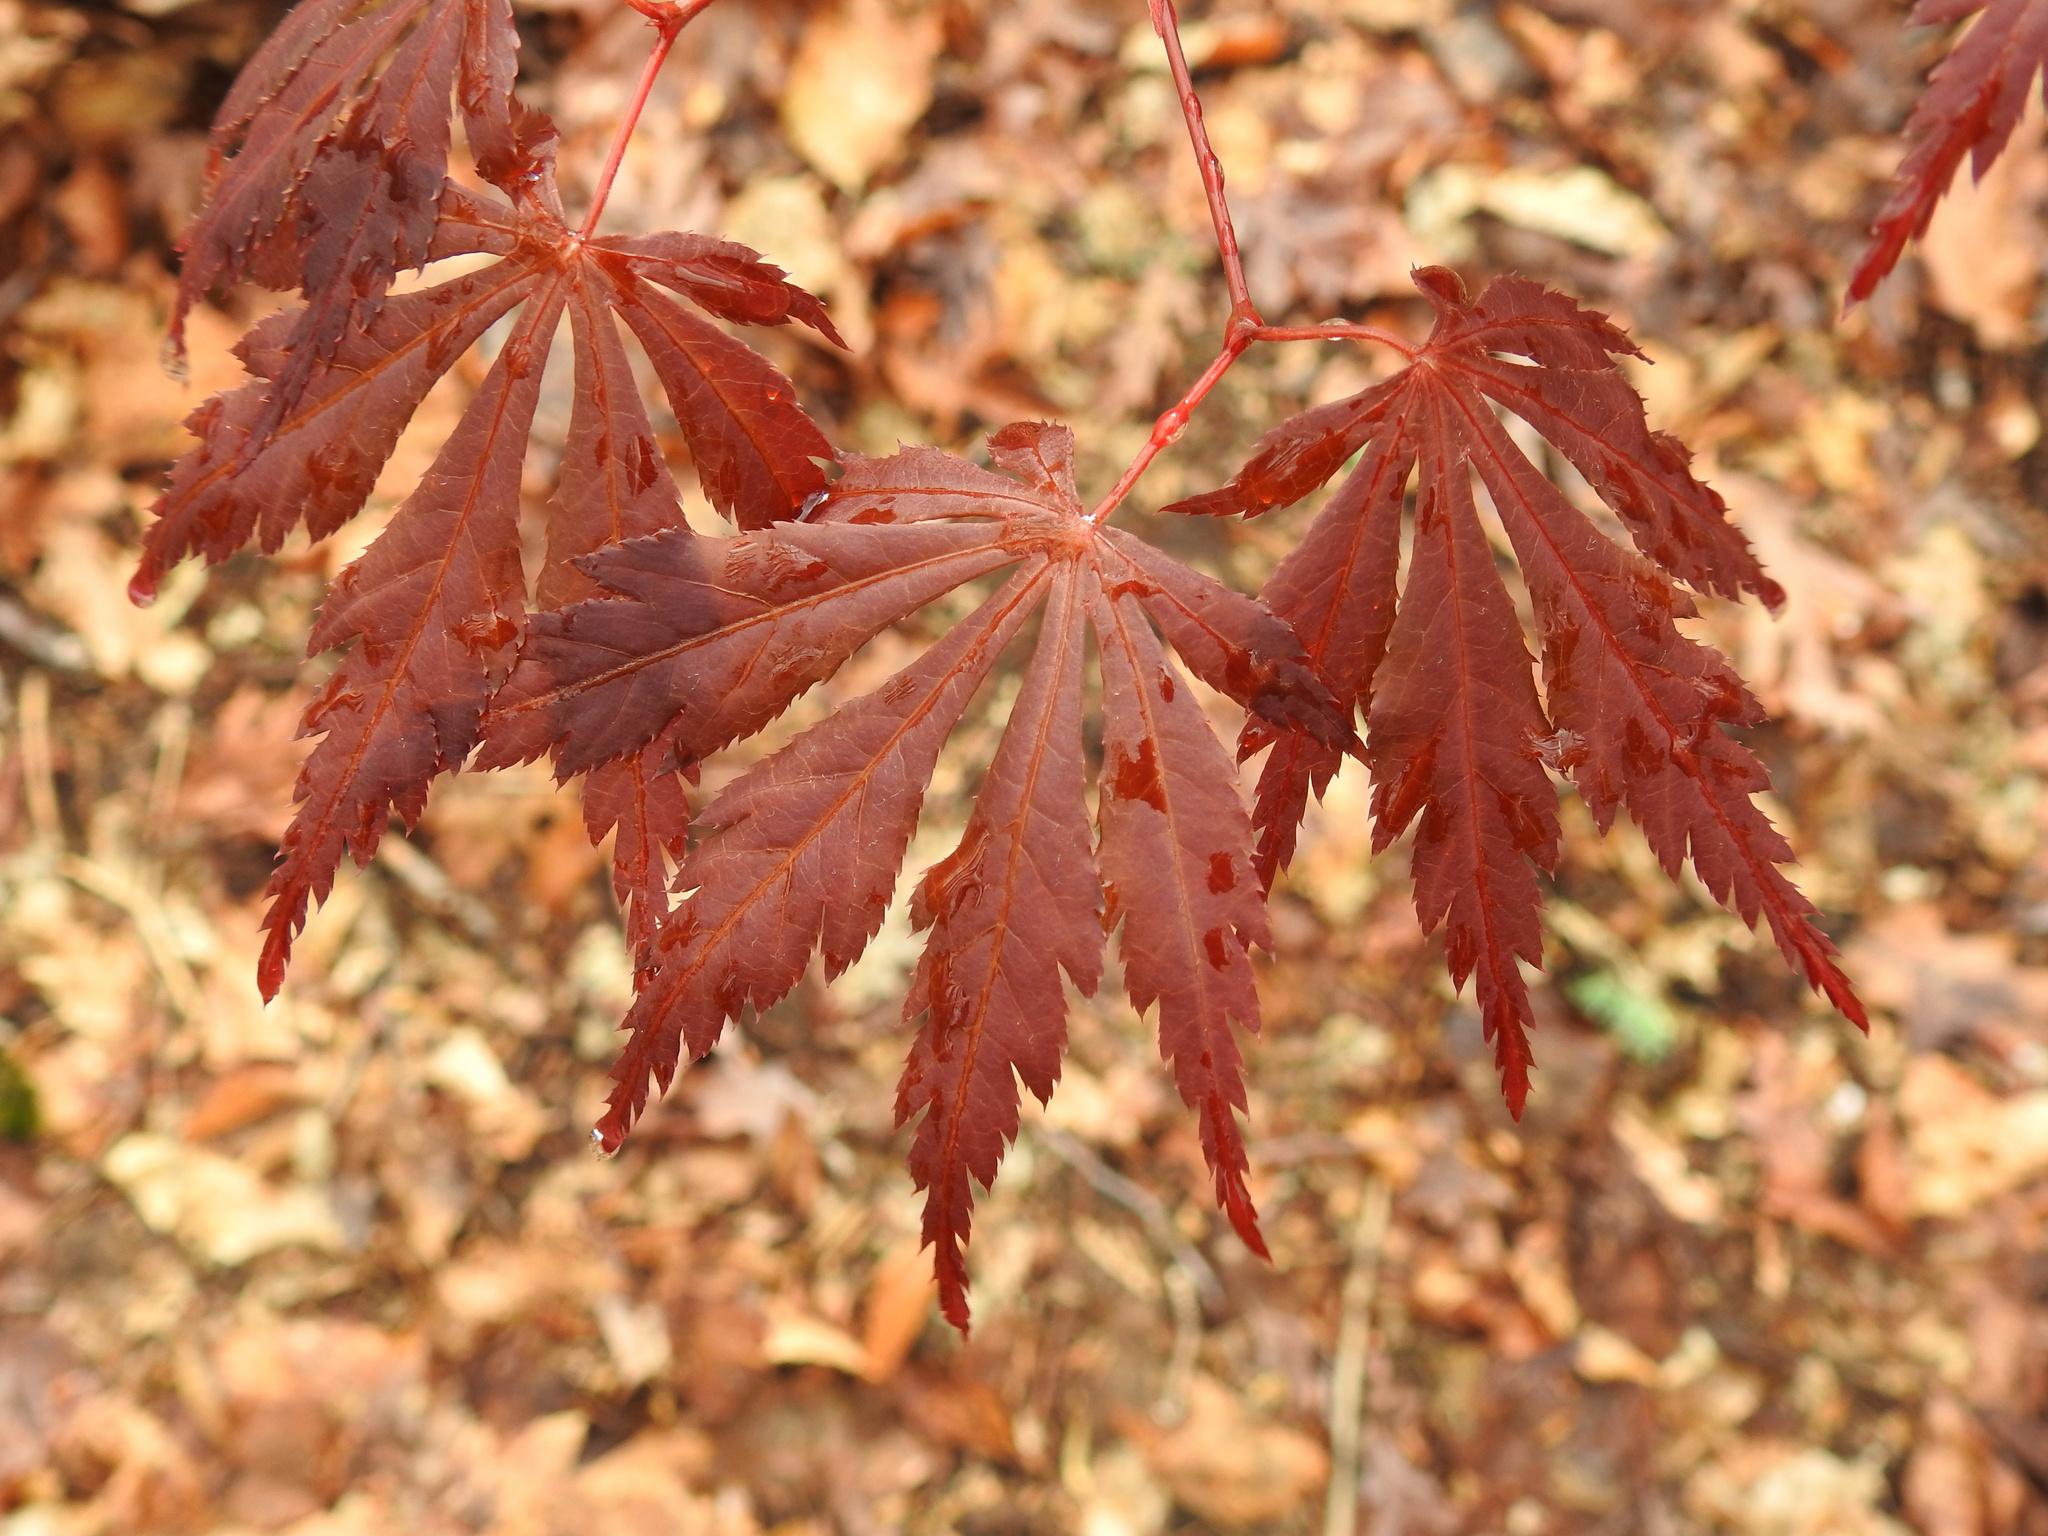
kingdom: Plantae
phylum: Tracheophyta
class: Magnoliopsida
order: Sapindales
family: Sapindaceae
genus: Acer
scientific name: Acer palmatum
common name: Japanese maple
